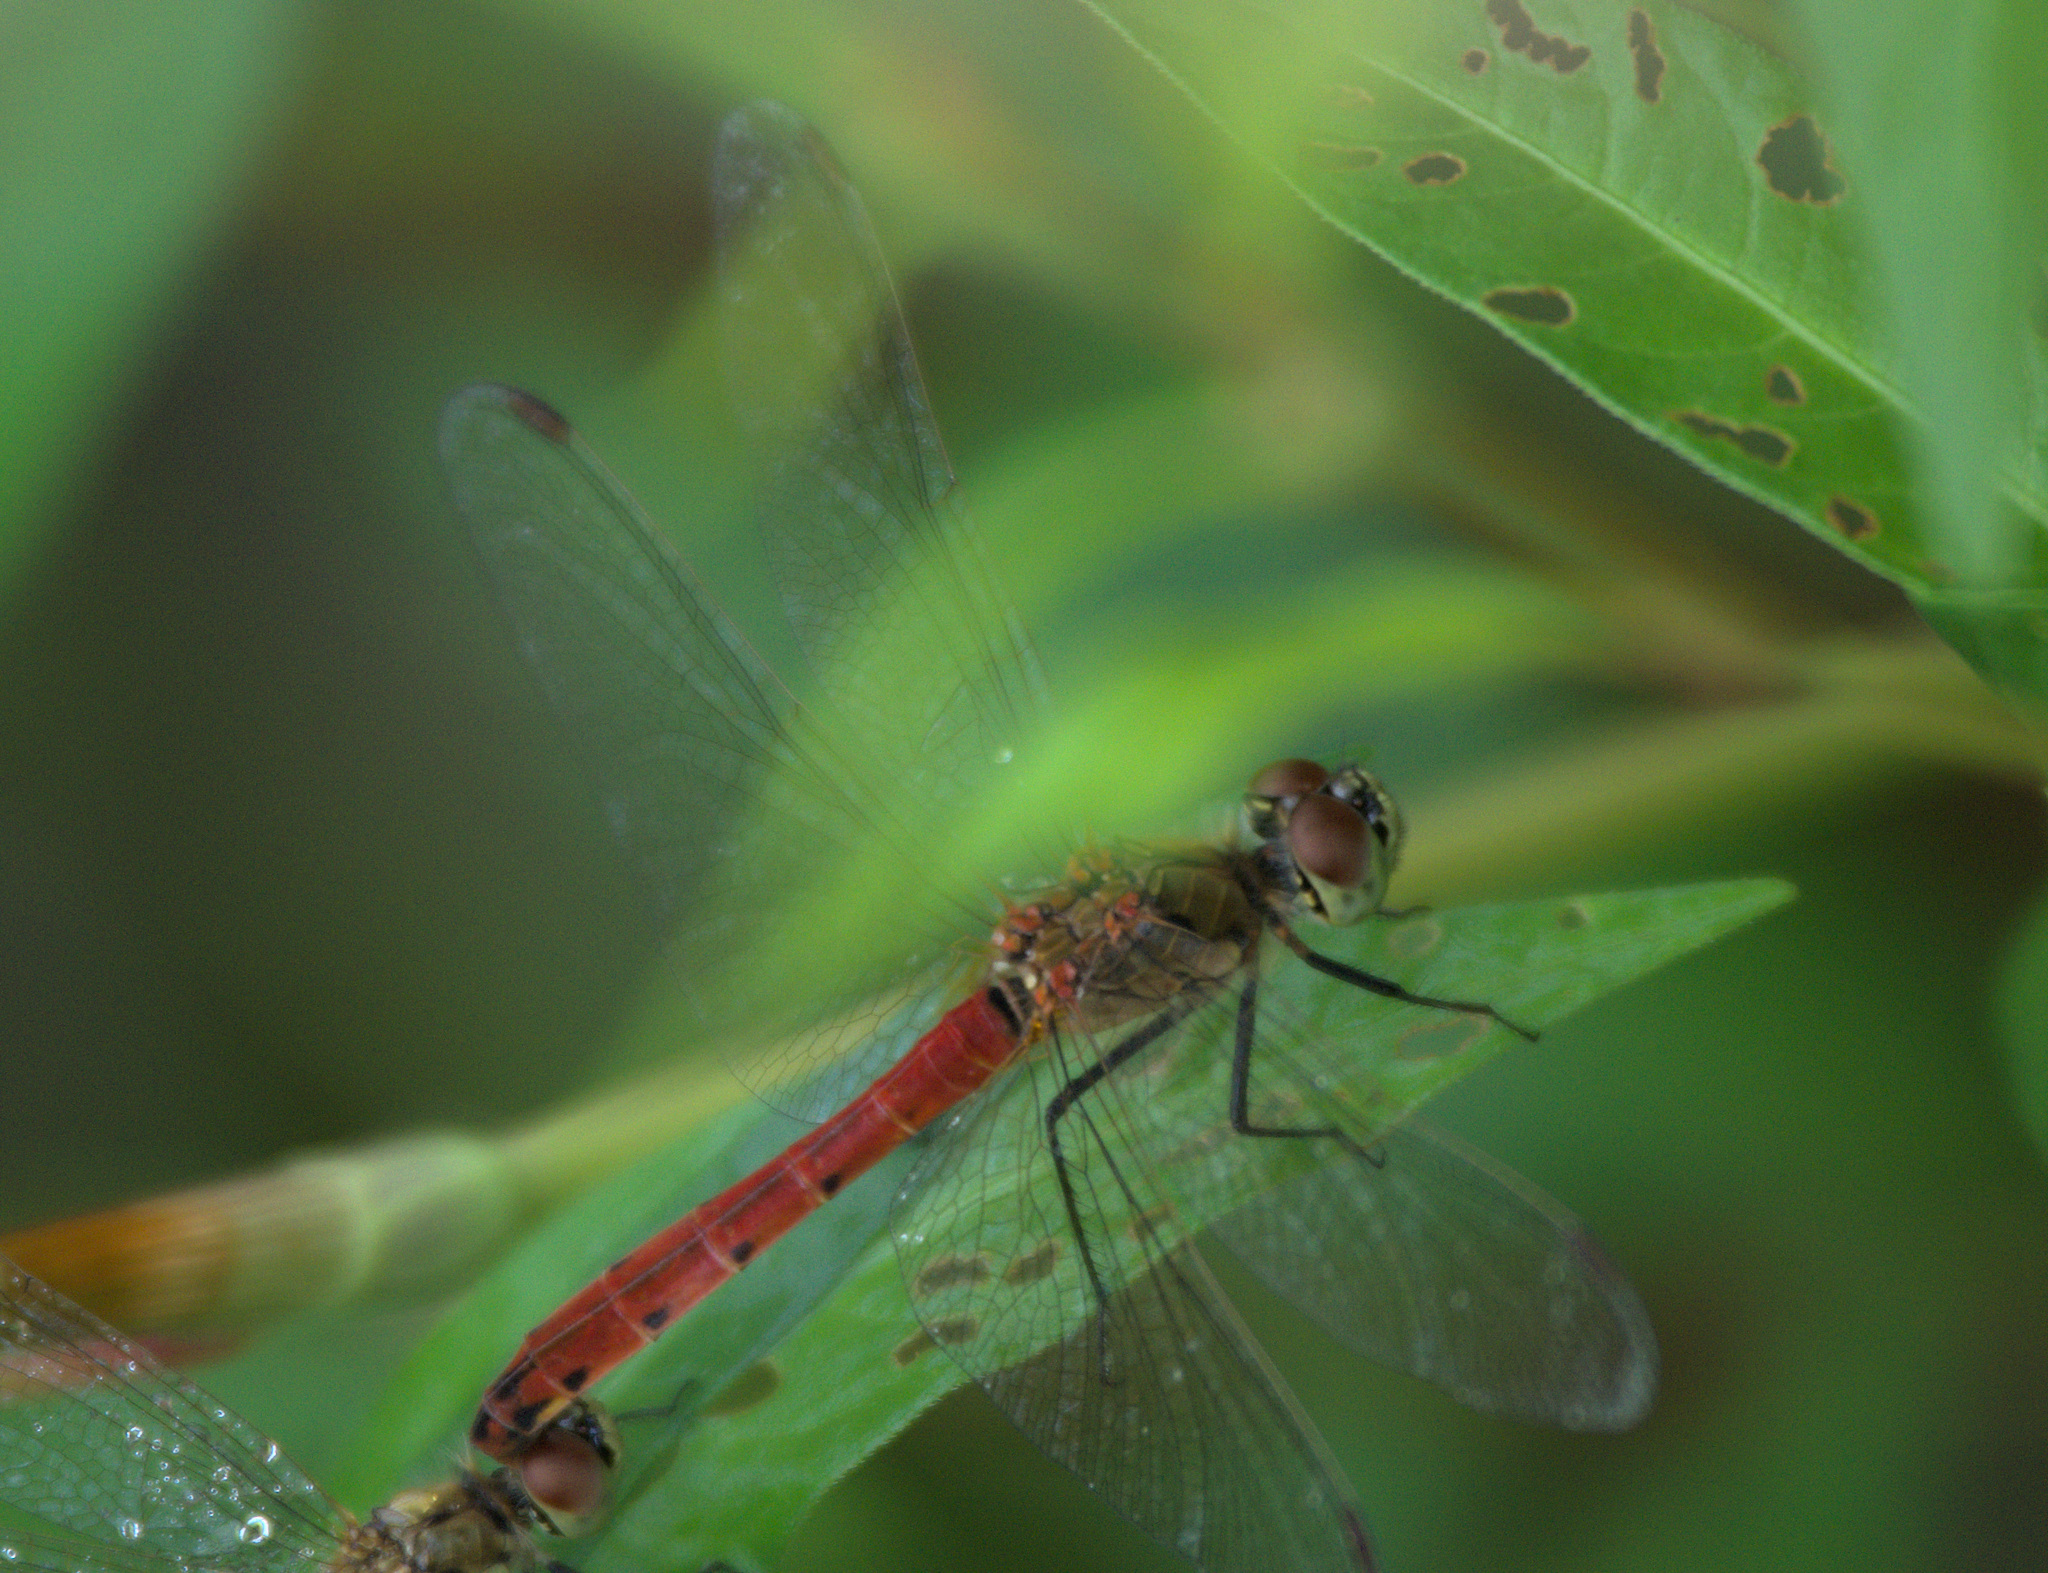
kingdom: Animalia
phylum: Arthropoda
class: Insecta
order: Odonata
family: Libellulidae
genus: Sympetrum
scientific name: Sympetrum depressiusculum
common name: Spotted darter
